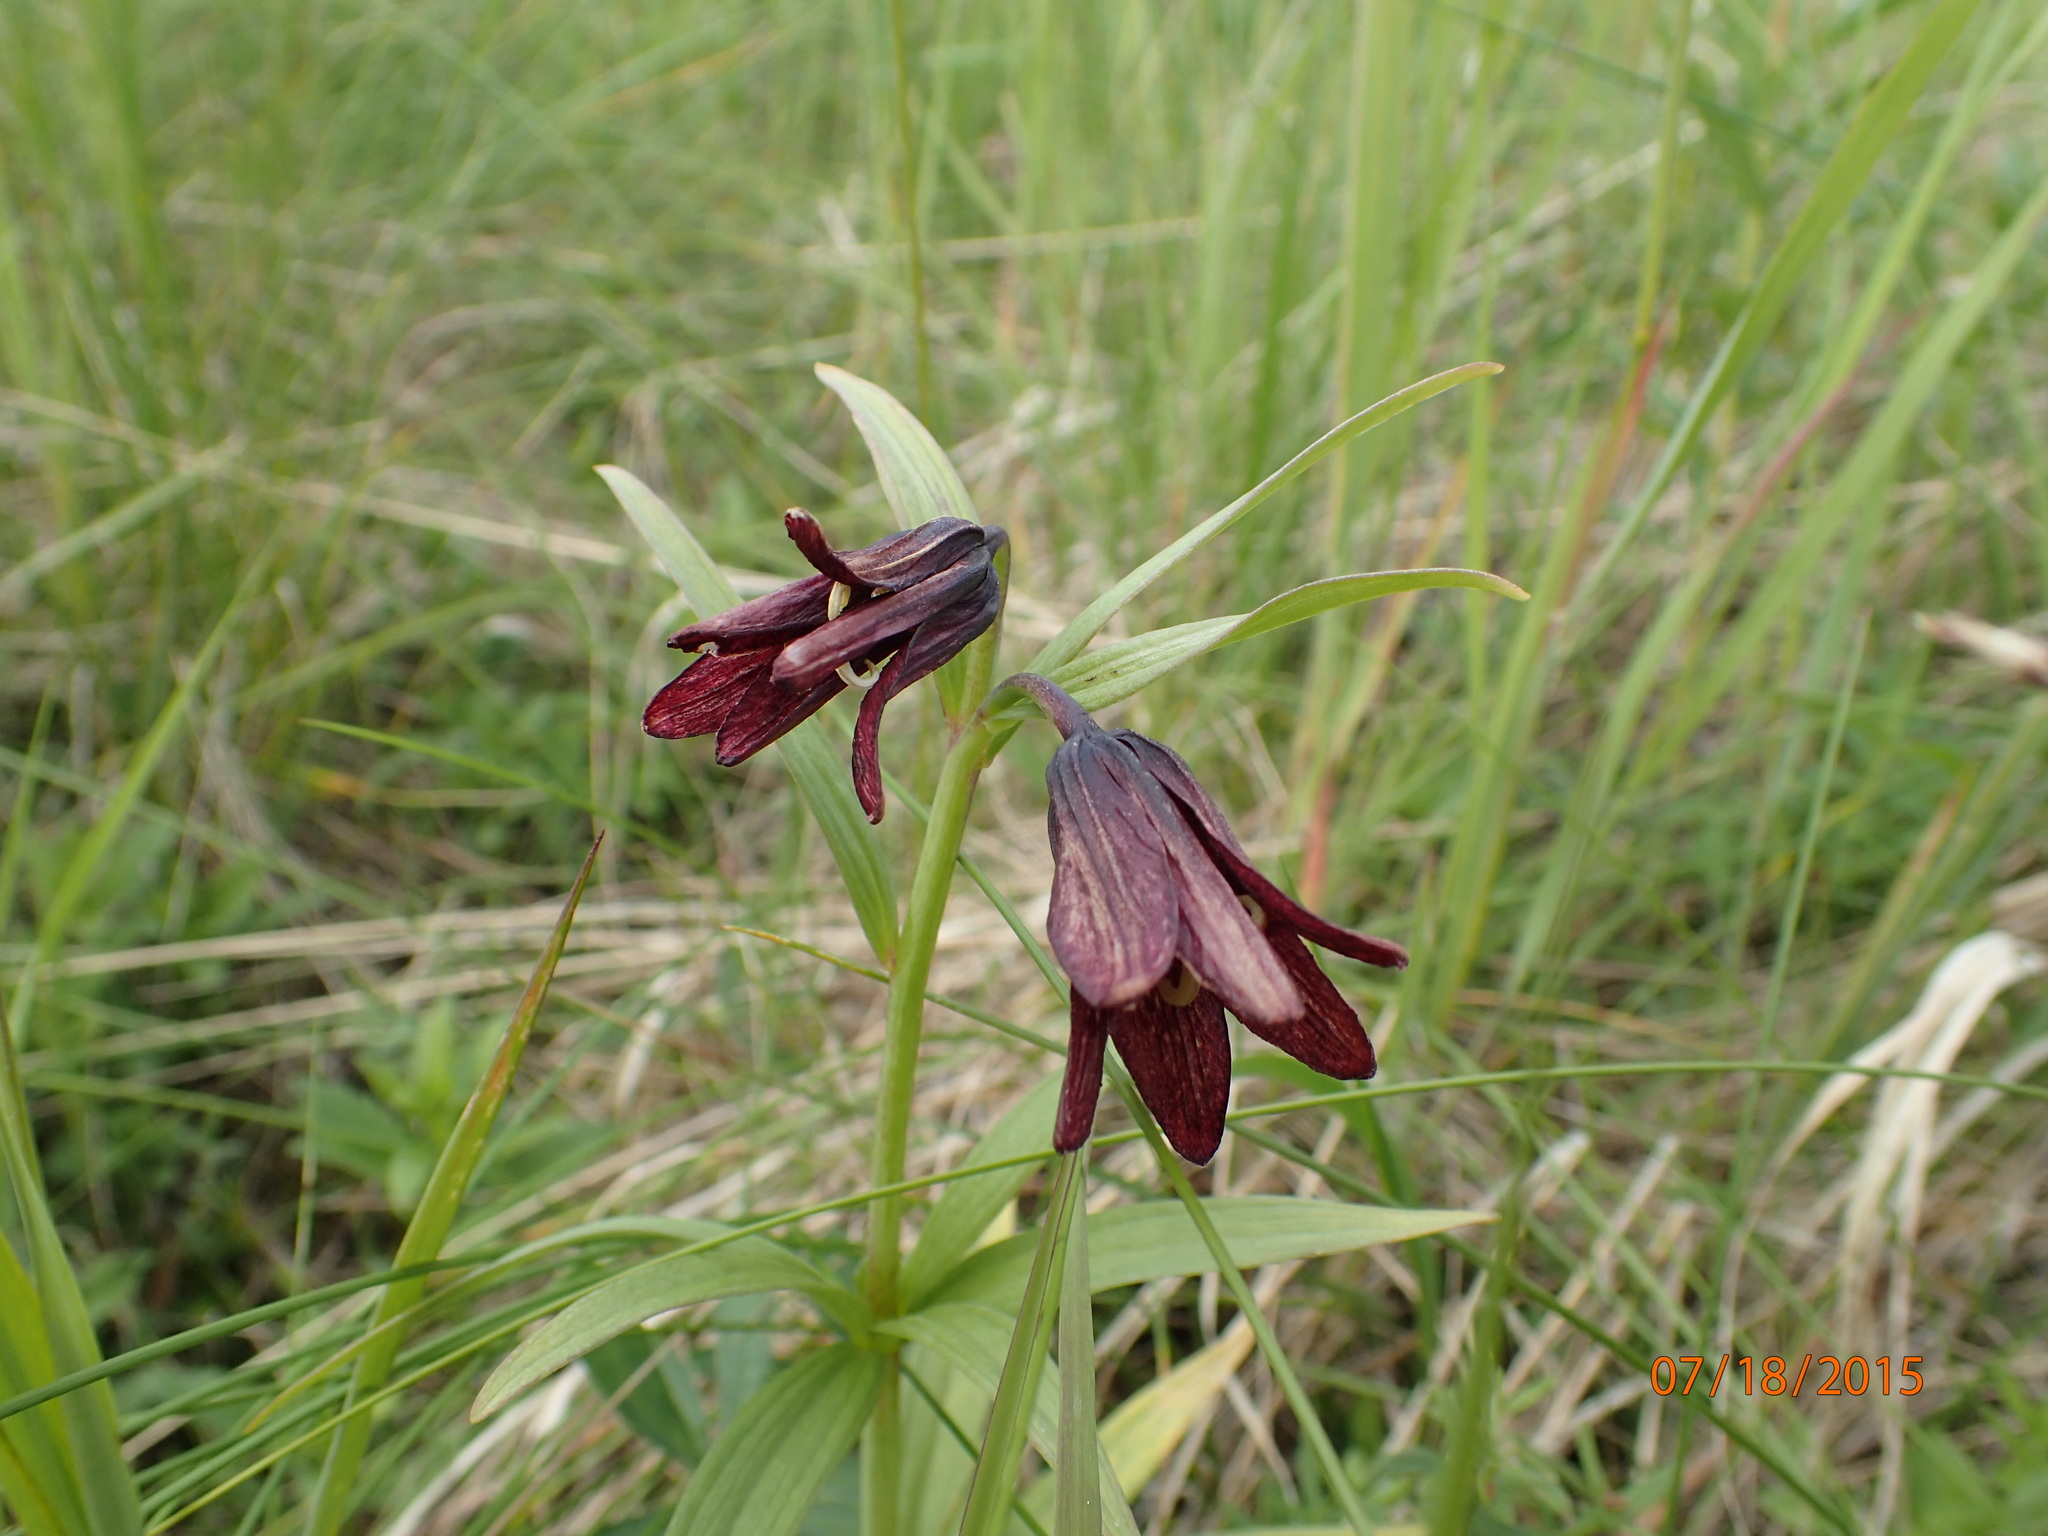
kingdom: Plantae
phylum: Tracheophyta
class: Liliopsida
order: Liliales
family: Liliaceae
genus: Fritillaria
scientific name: Fritillaria camschatcensis
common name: Kamchatka fritillary
